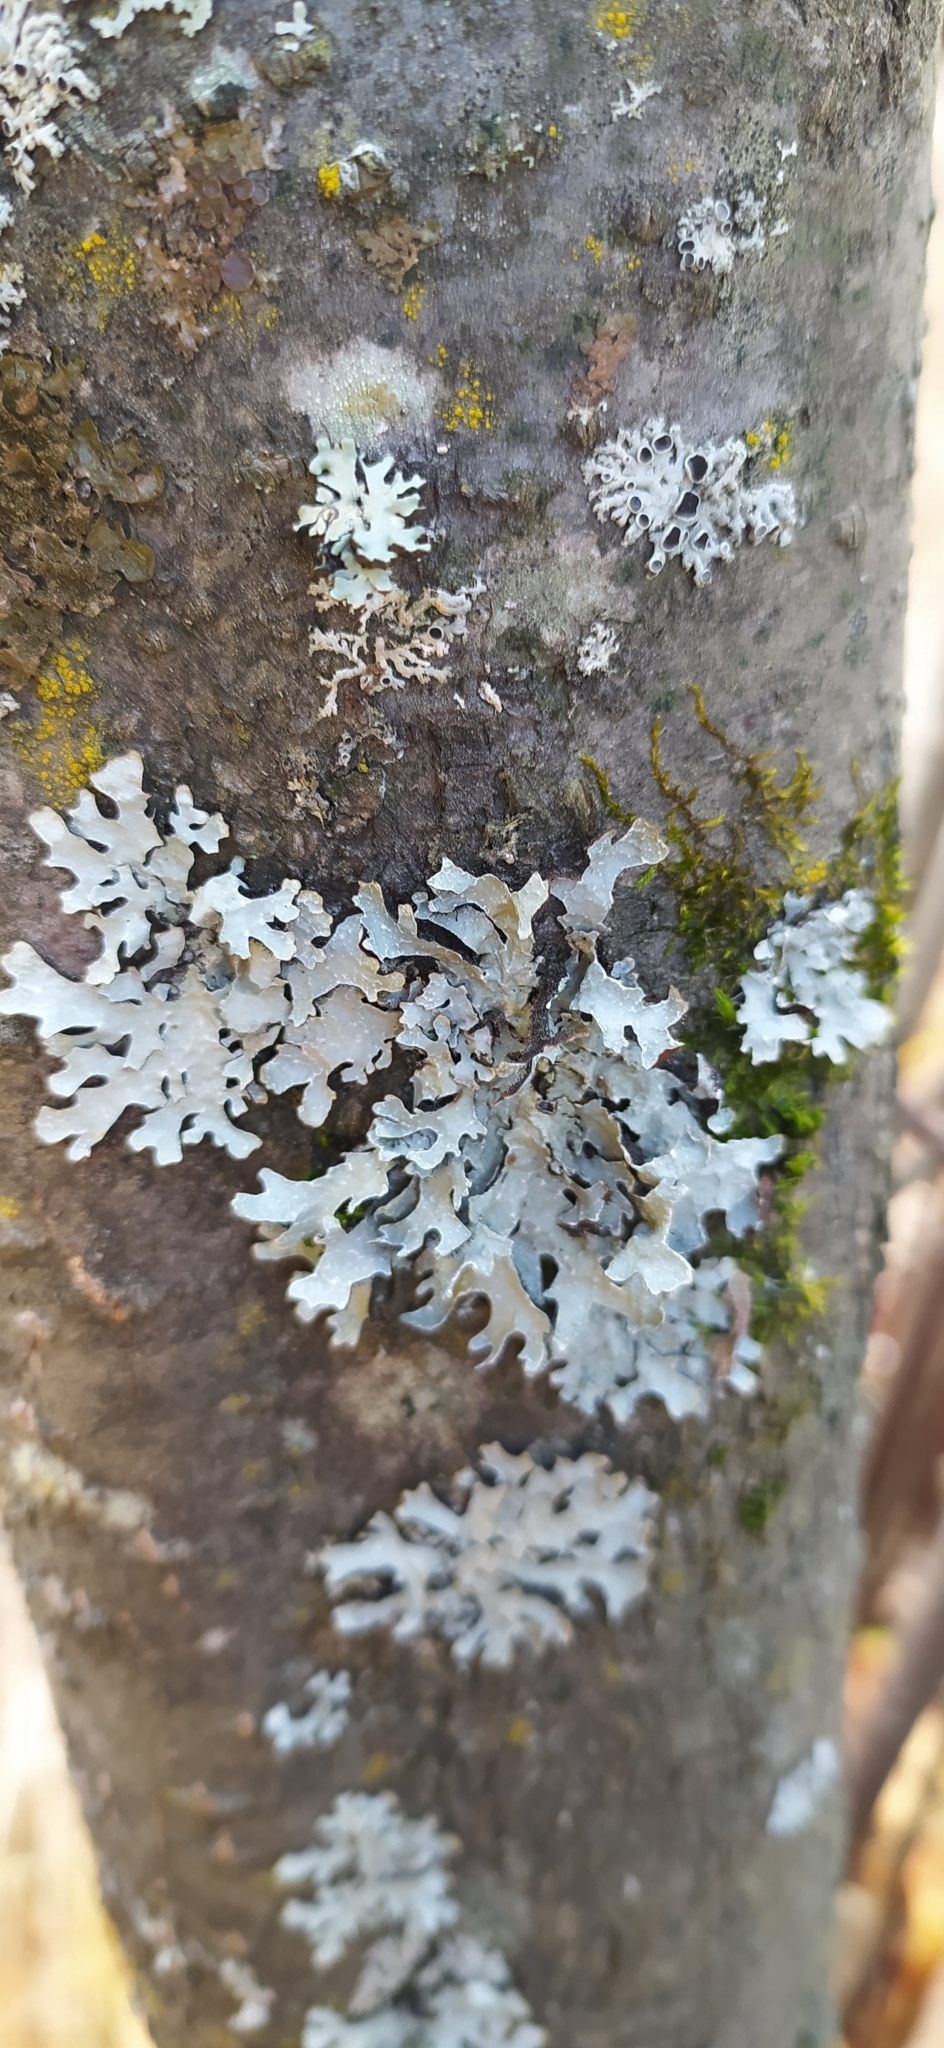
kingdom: Fungi
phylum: Ascomycota
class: Lecanoromycetes
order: Lecanorales
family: Parmeliaceae
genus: Parmelia
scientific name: Parmelia sulcata
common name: Netted shield lichen
